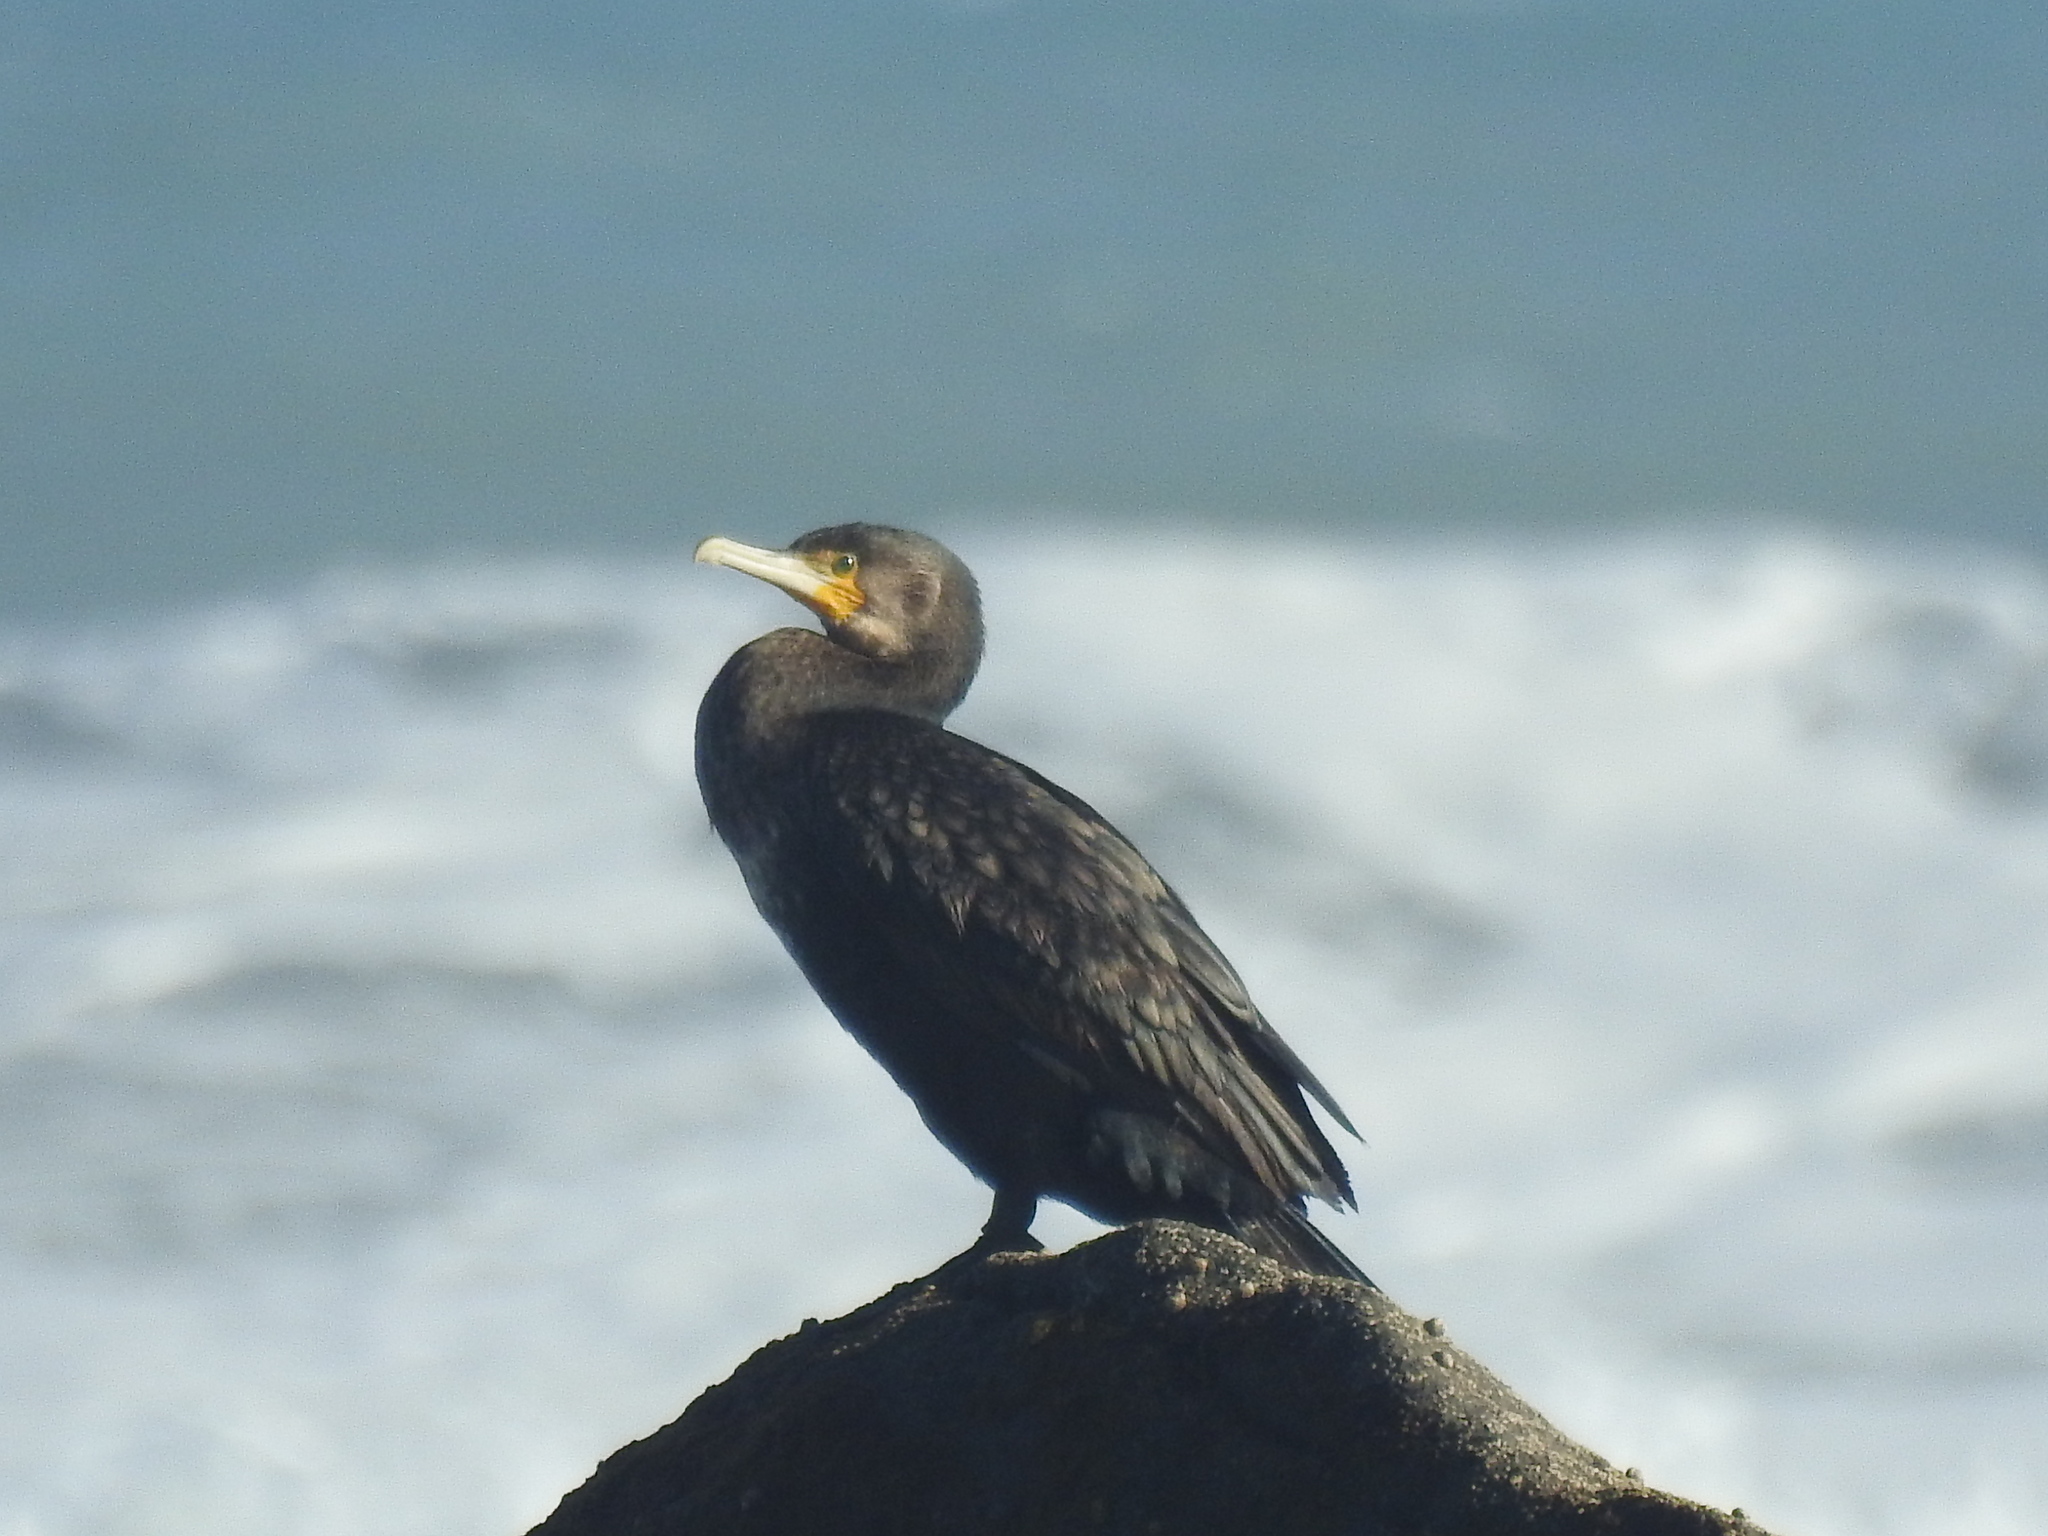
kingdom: Animalia
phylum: Chordata
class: Aves
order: Suliformes
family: Phalacrocoracidae
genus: Phalacrocorax
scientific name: Phalacrocorax carbo
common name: Great cormorant
